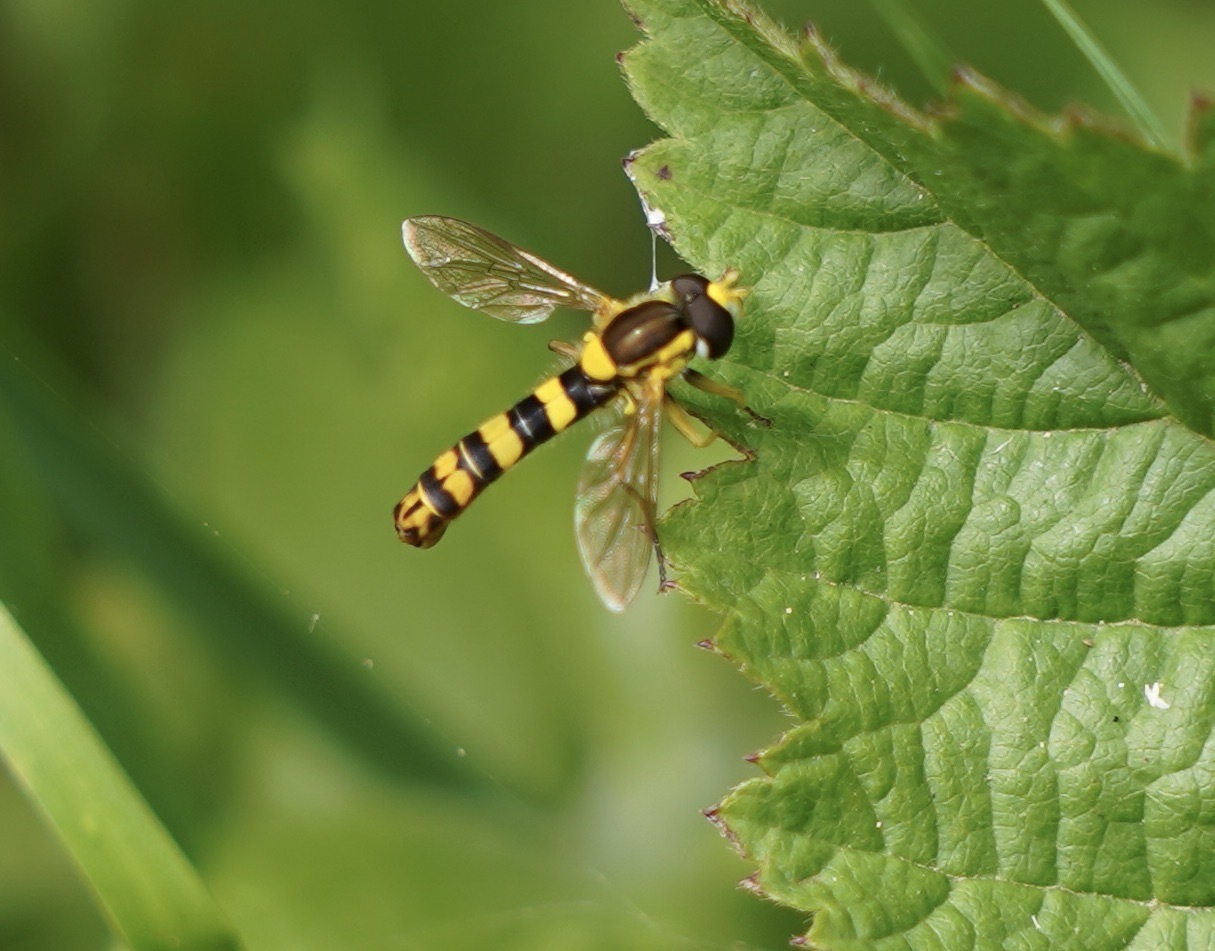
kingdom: Animalia
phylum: Arthropoda
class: Insecta
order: Diptera
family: Syrphidae
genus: Sphaerophoria
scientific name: Sphaerophoria scripta
